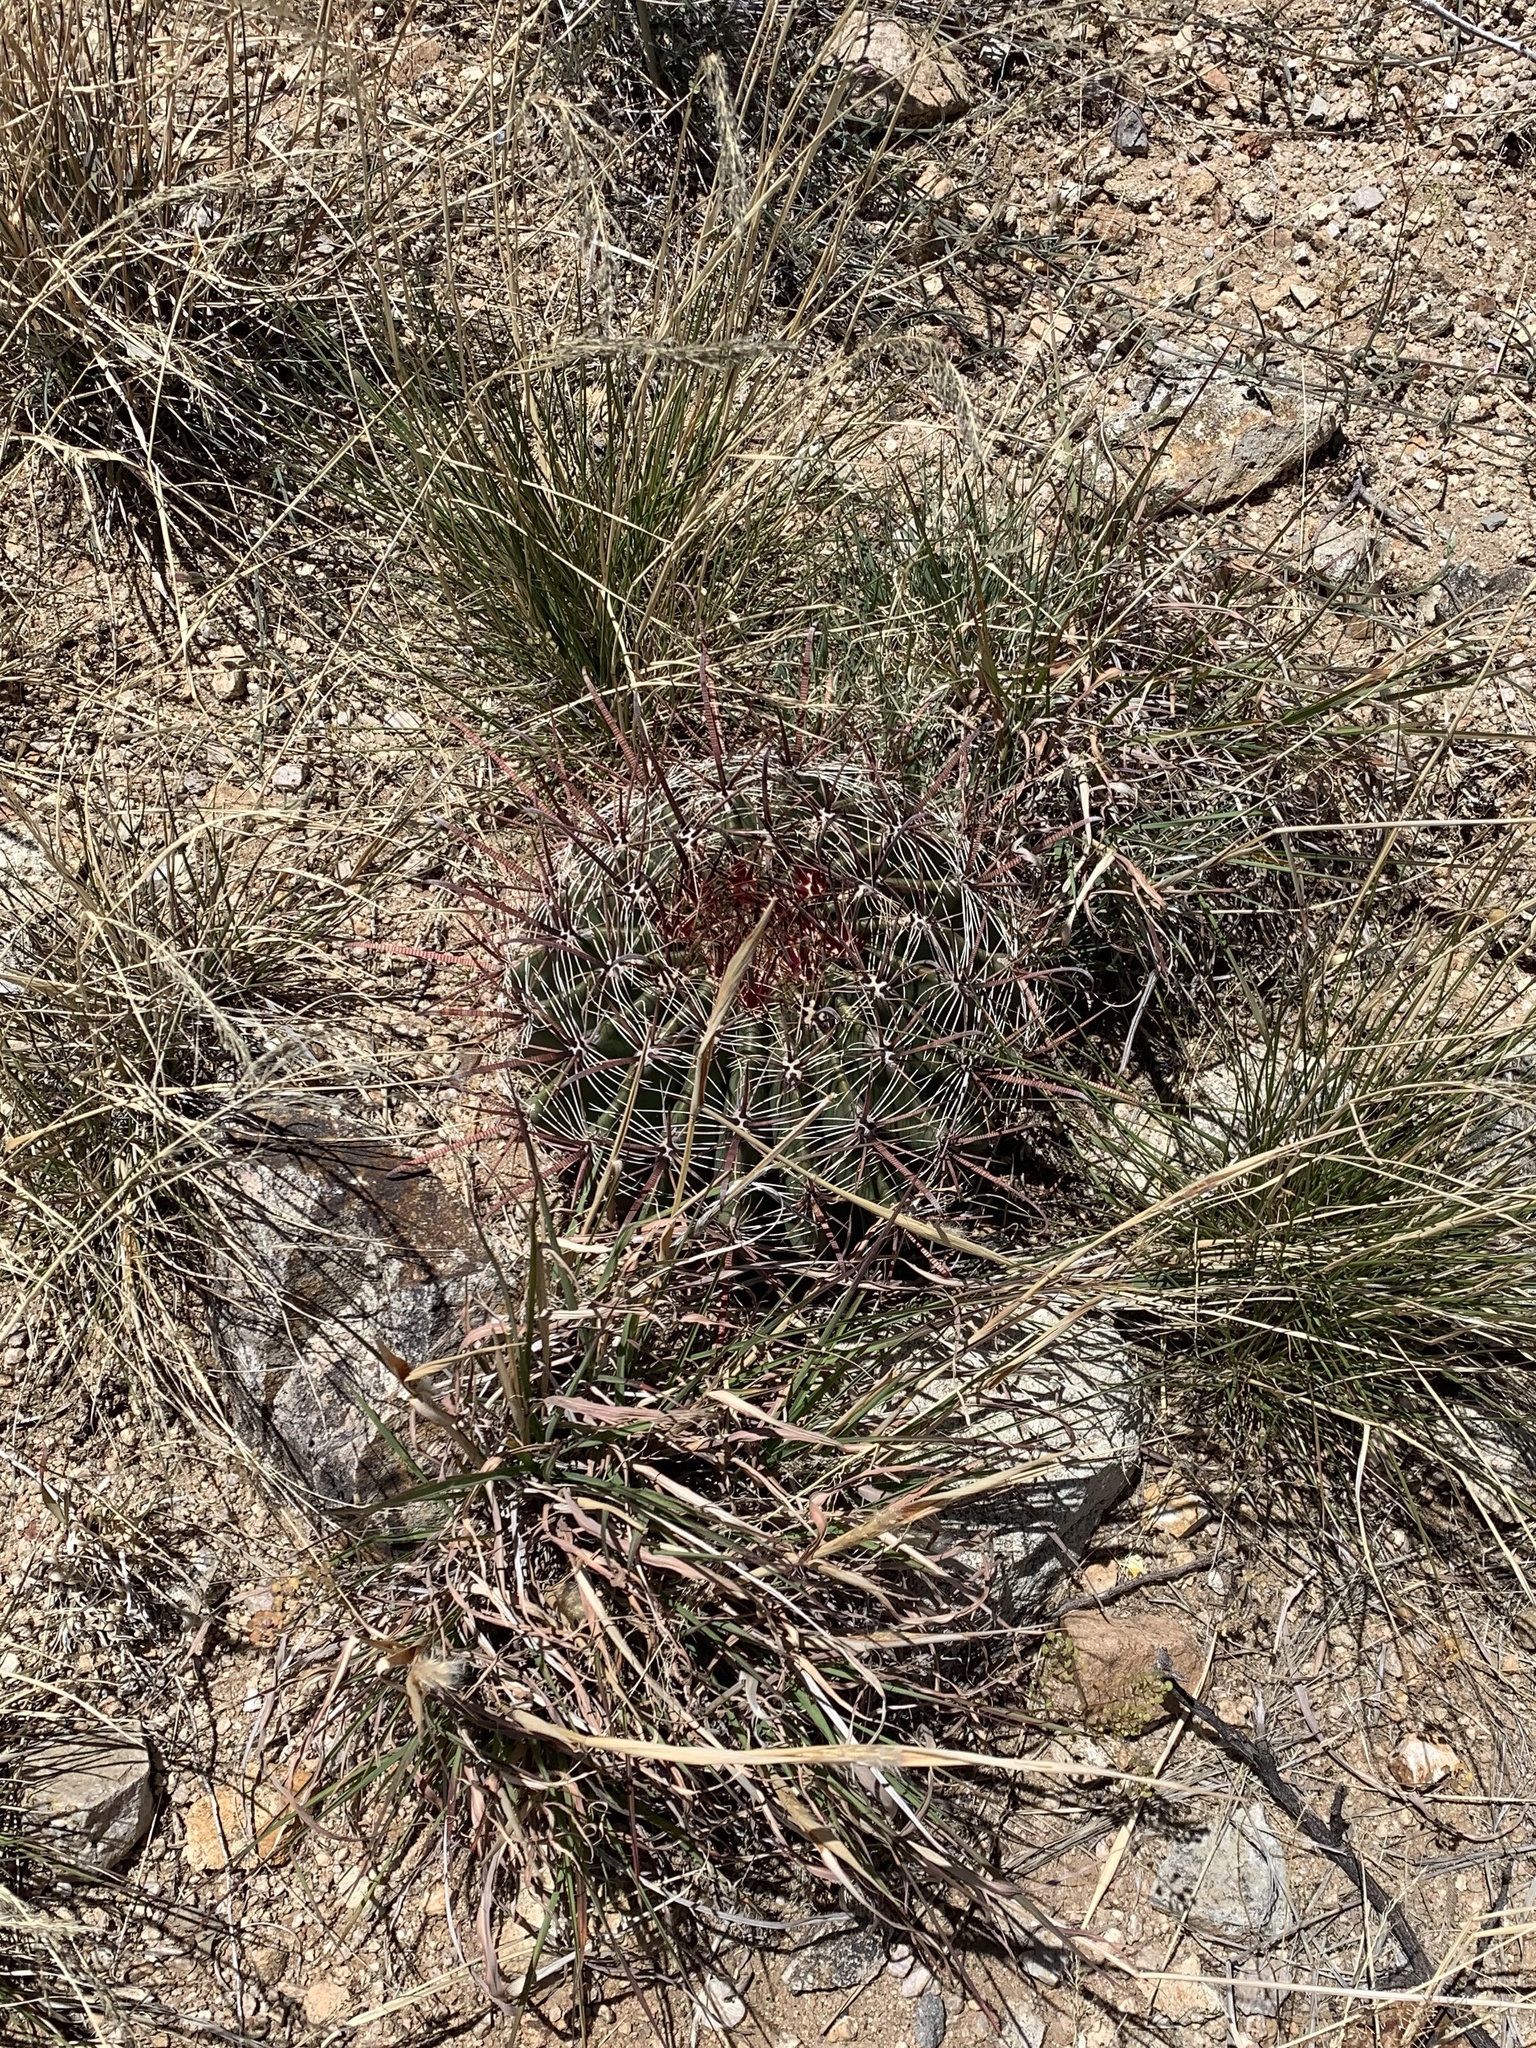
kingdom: Plantae
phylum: Tracheophyta
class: Magnoliopsida
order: Caryophyllales
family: Cactaceae
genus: Ferocactus
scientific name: Ferocactus wislizeni
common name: Candy barrel cactus
